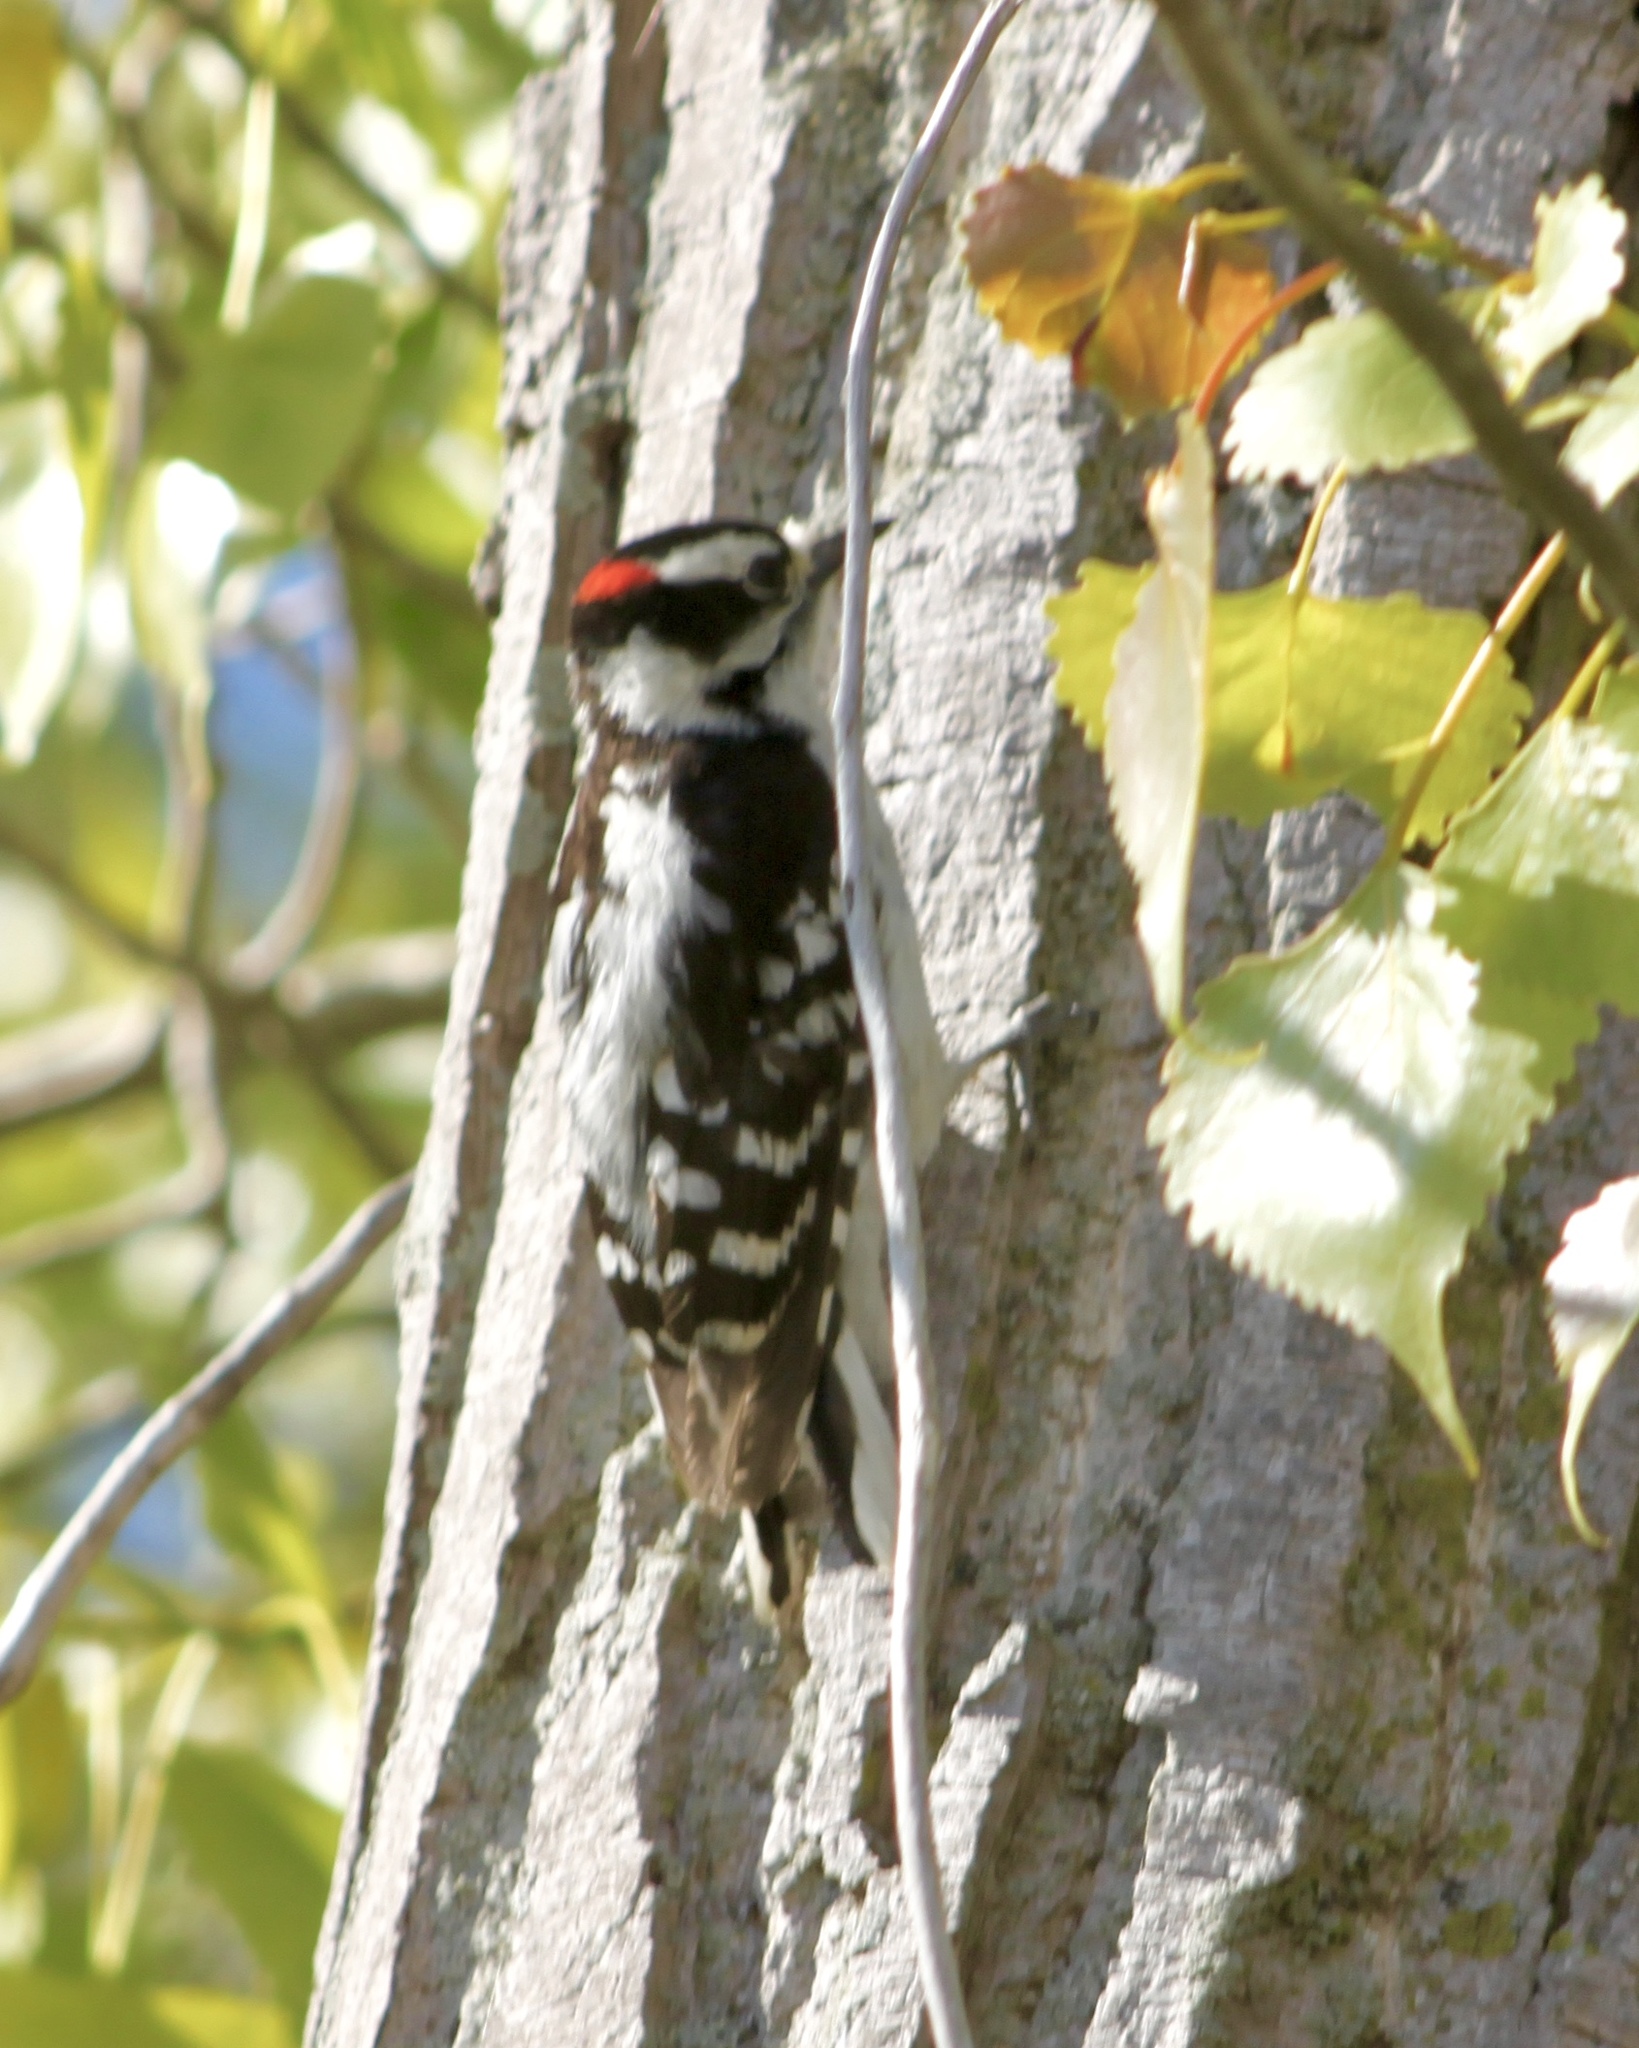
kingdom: Animalia
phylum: Chordata
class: Aves
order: Piciformes
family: Picidae
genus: Dryobates
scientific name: Dryobates pubescens
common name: Downy woodpecker
